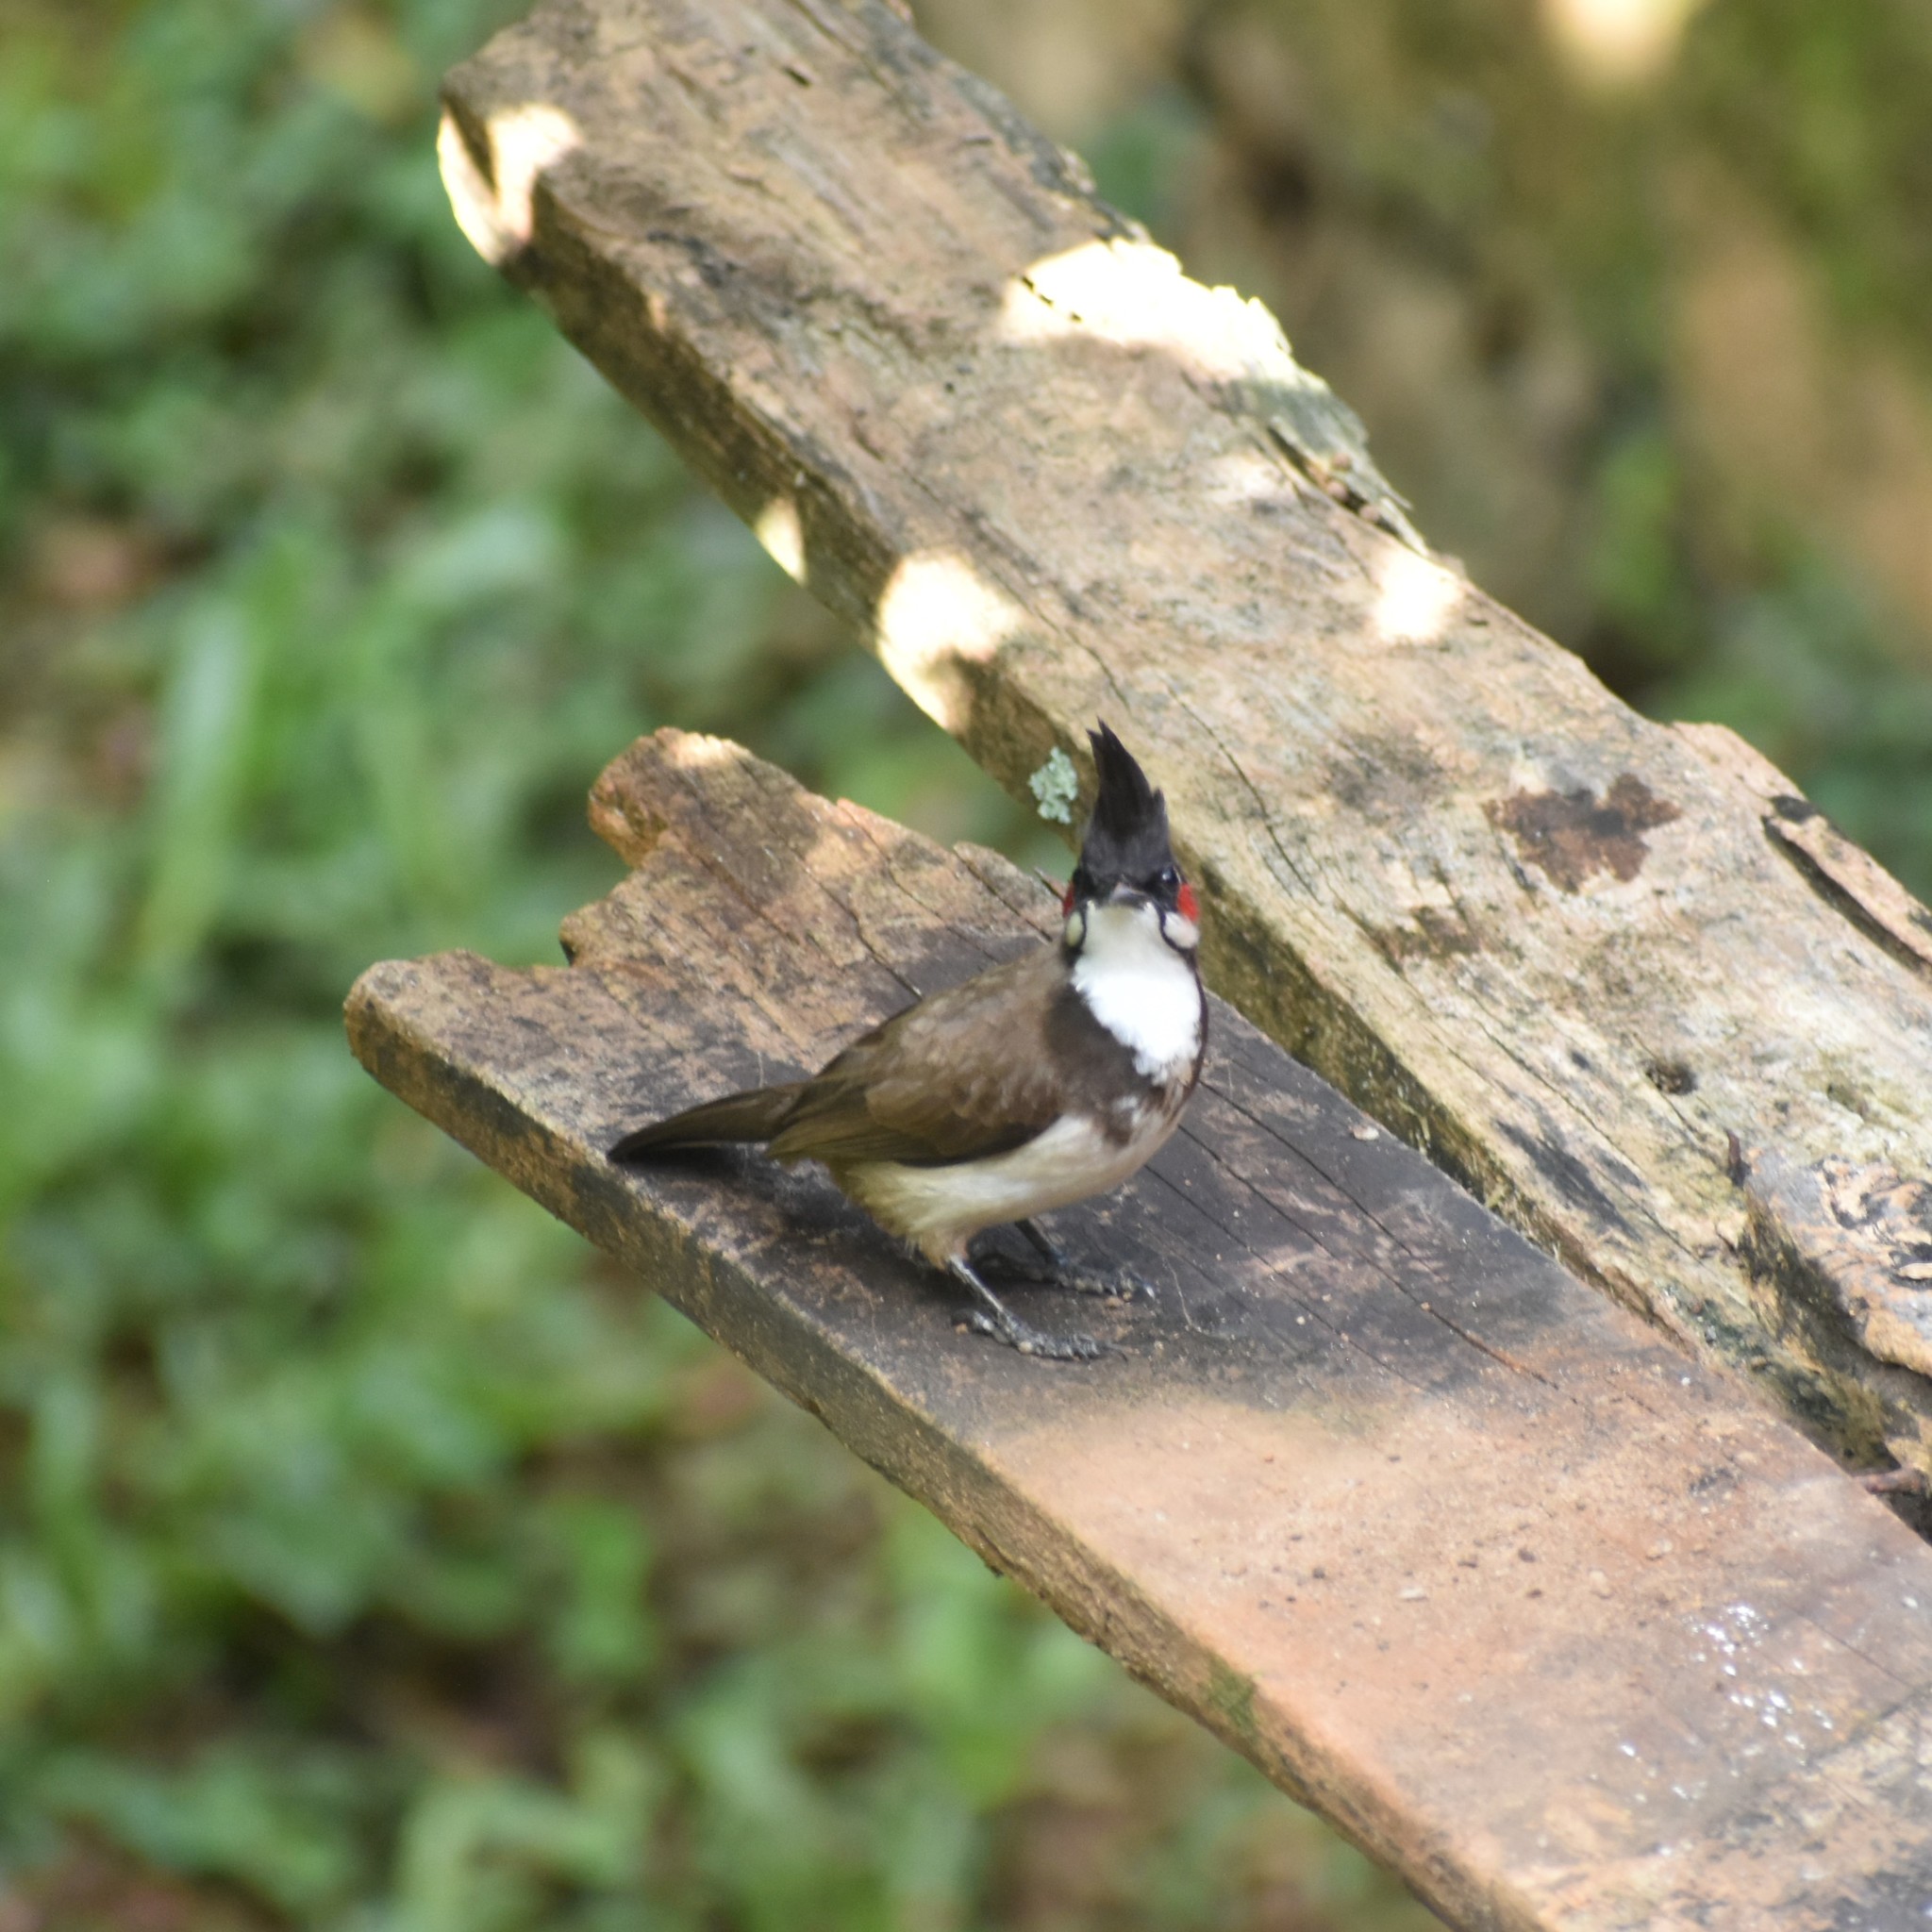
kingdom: Animalia
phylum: Chordata
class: Aves
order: Passeriformes
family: Pycnonotidae
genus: Pycnonotus
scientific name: Pycnonotus jocosus
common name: Red-whiskered bulbul
